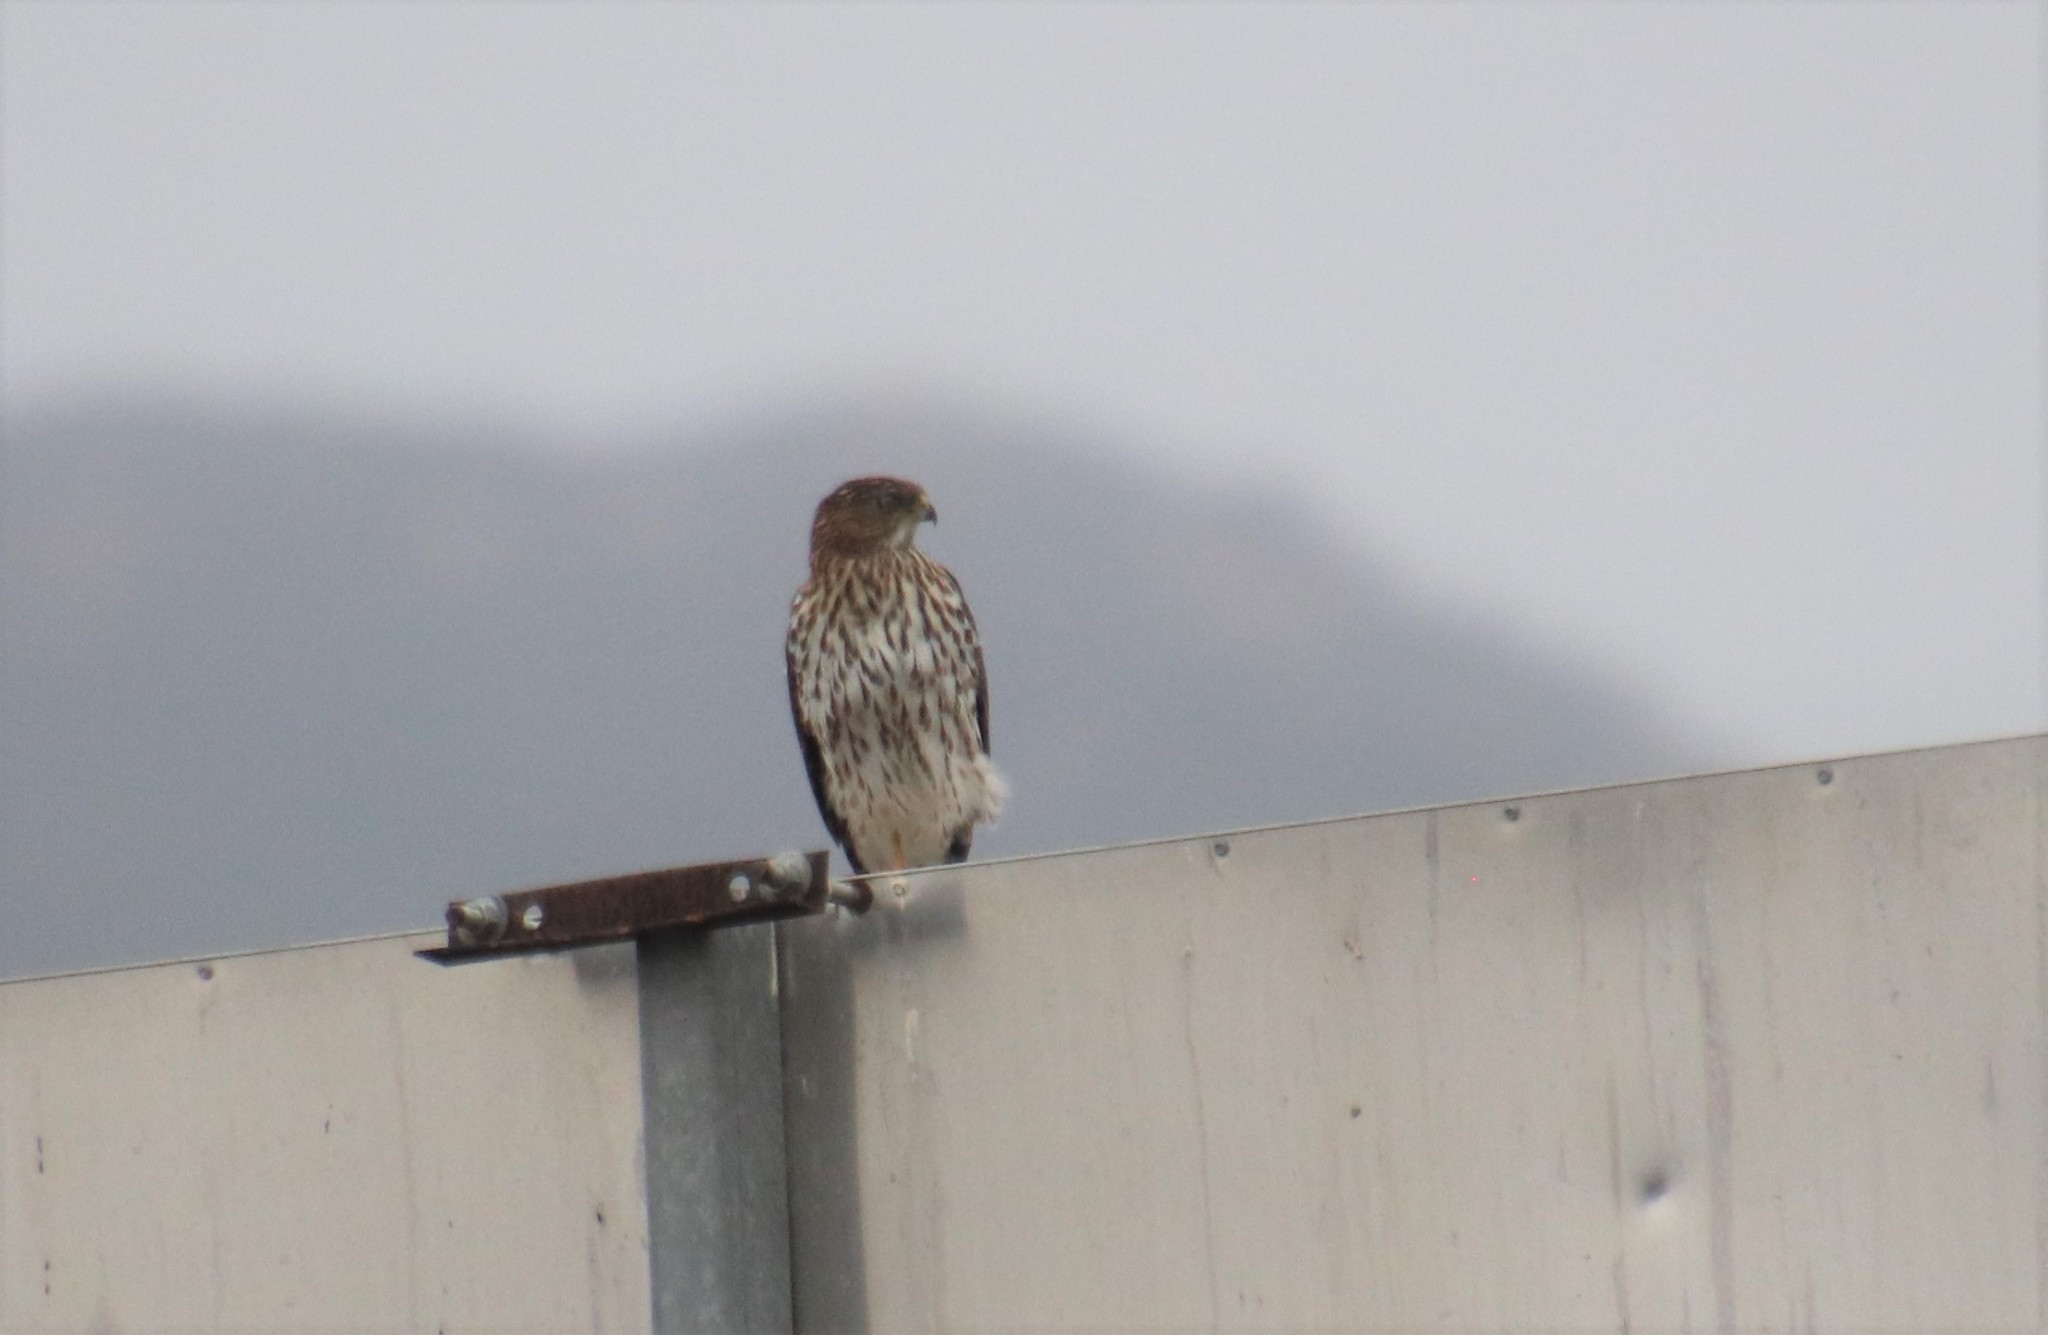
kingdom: Animalia
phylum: Chordata
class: Aves
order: Accipitriformes
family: Accipitridae
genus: Accipiter
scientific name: Accipiter cooperii
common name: Cooper's hawk
